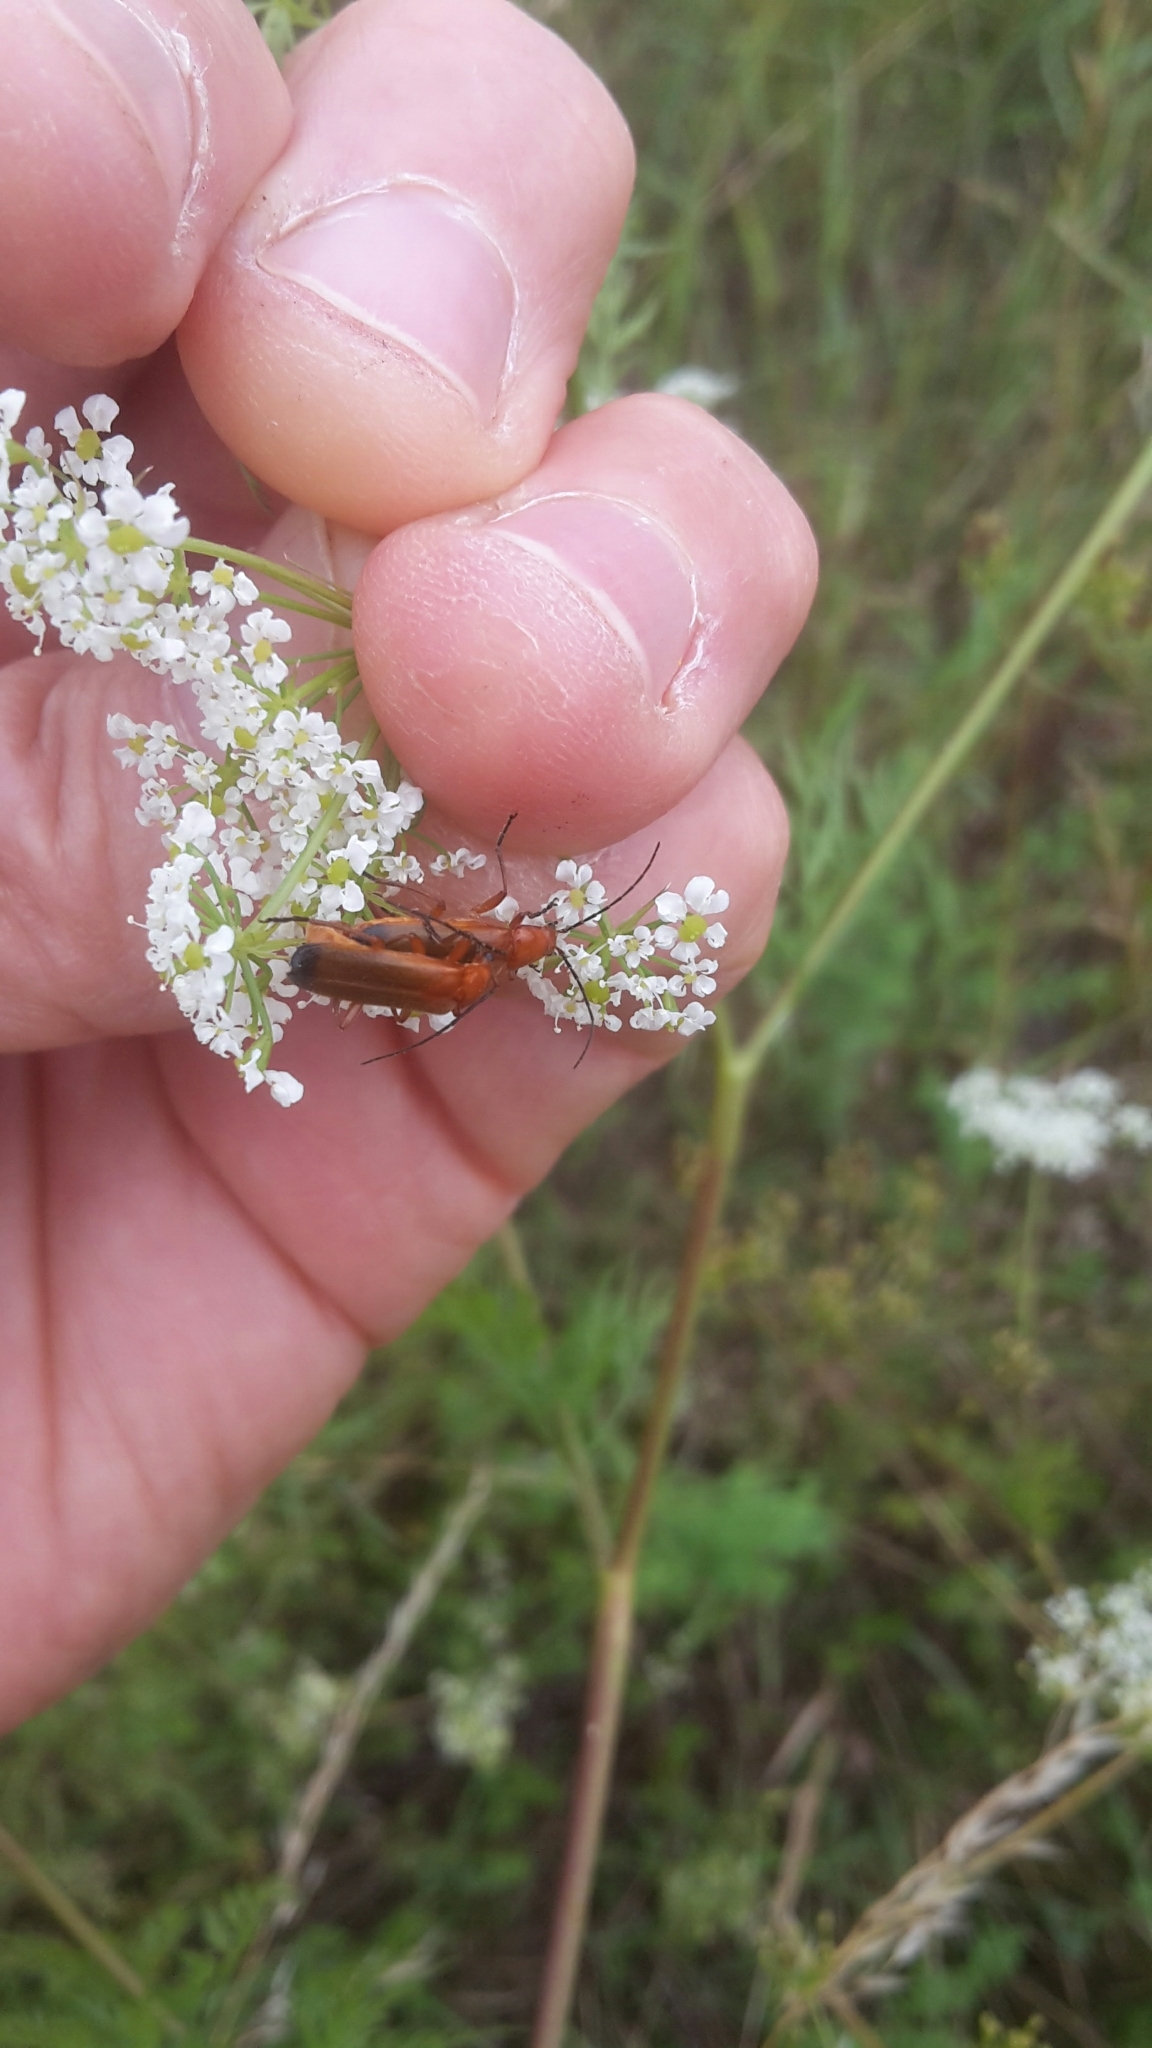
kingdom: Animalia
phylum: Arthropoda
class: Insecta
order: Coleoptera
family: Cantharidae
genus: Rhagonycha
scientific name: Rhagonycha fulva
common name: Common red soldier beetle
